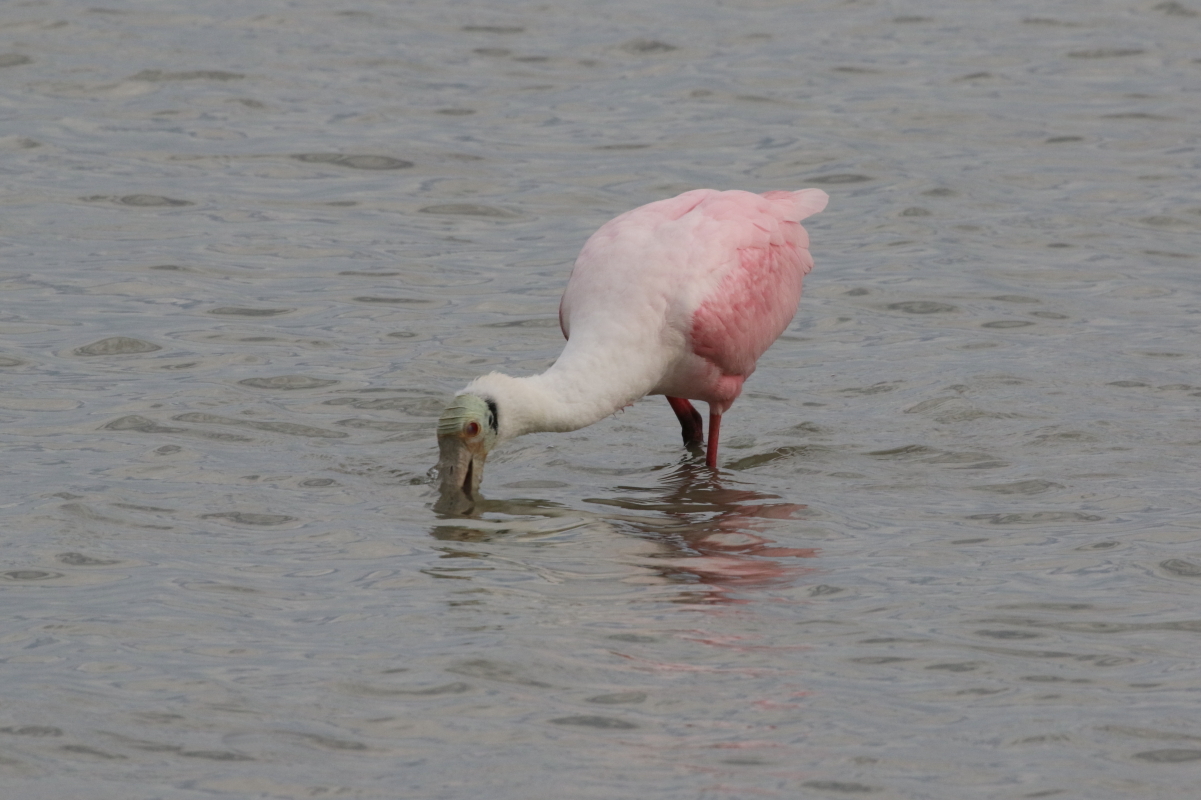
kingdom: Animalia
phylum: Chordata
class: Aves
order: Pelecaniformes
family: Threskiornithidae
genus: Platalea
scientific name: Platalea ajaja
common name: Roseate spoonbill
